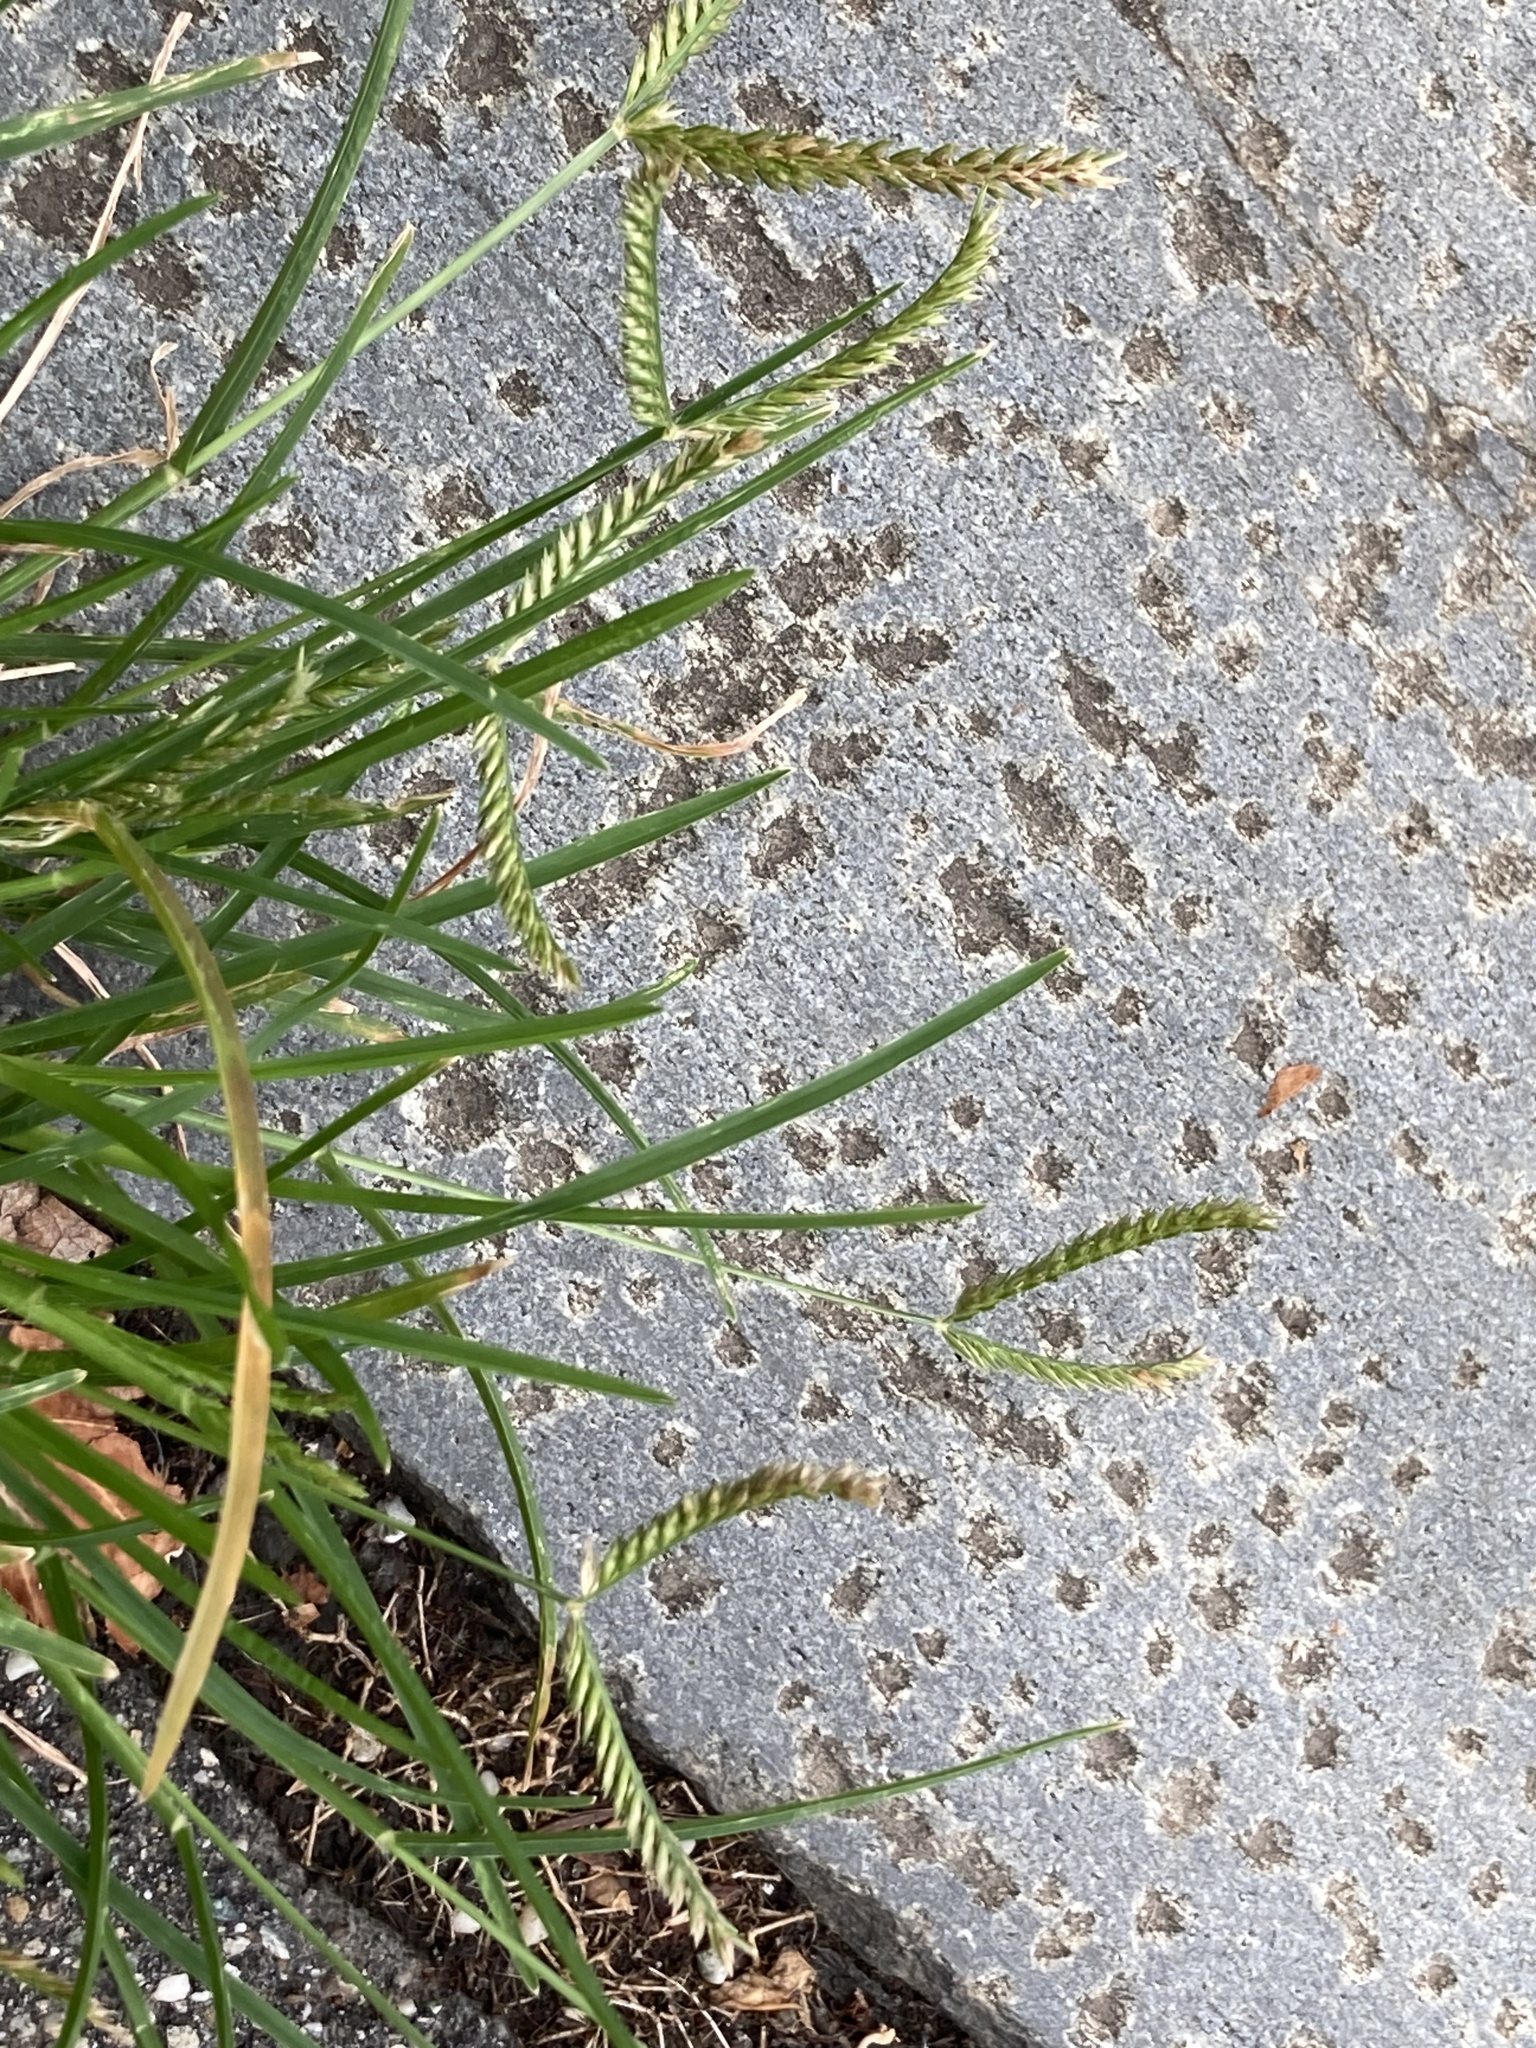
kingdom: Plantae
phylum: Tracheophyta
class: Liliopsida
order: Poales
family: Poaceae
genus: Eleusine
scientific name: Eleusine indica
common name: Yard-grass
